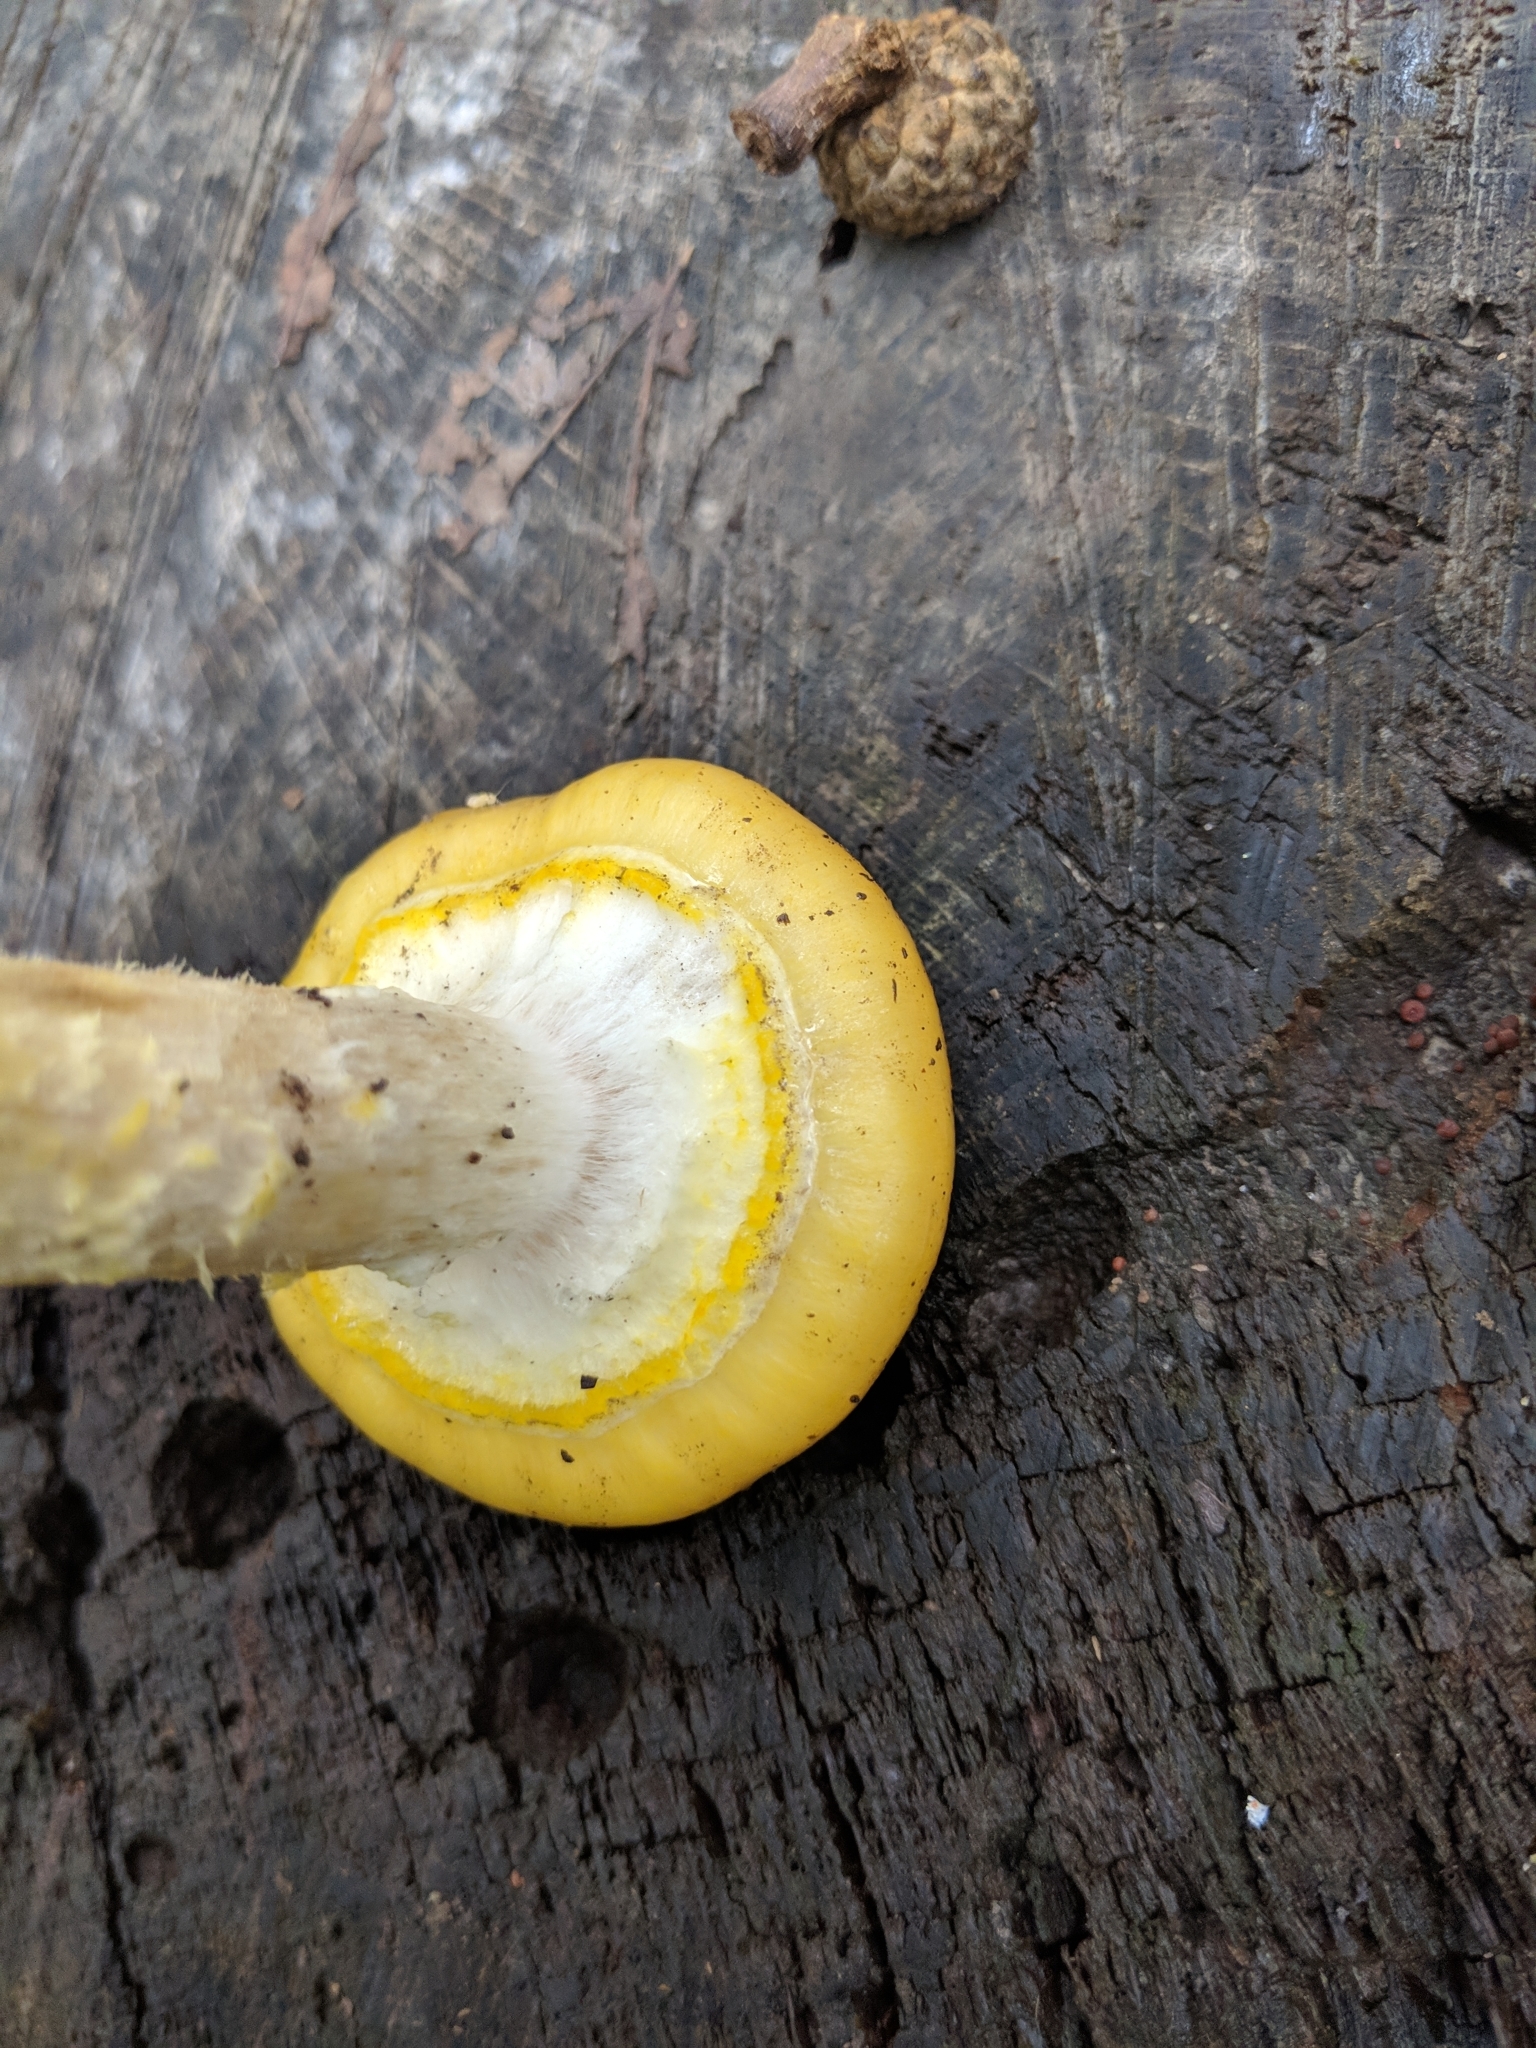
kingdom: Fungi
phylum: Basidiomycota
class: Agaricomycetes
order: Agaricales
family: Physalacriaceae
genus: Armillaria
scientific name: Armillaria mellea
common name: Honey fungus
